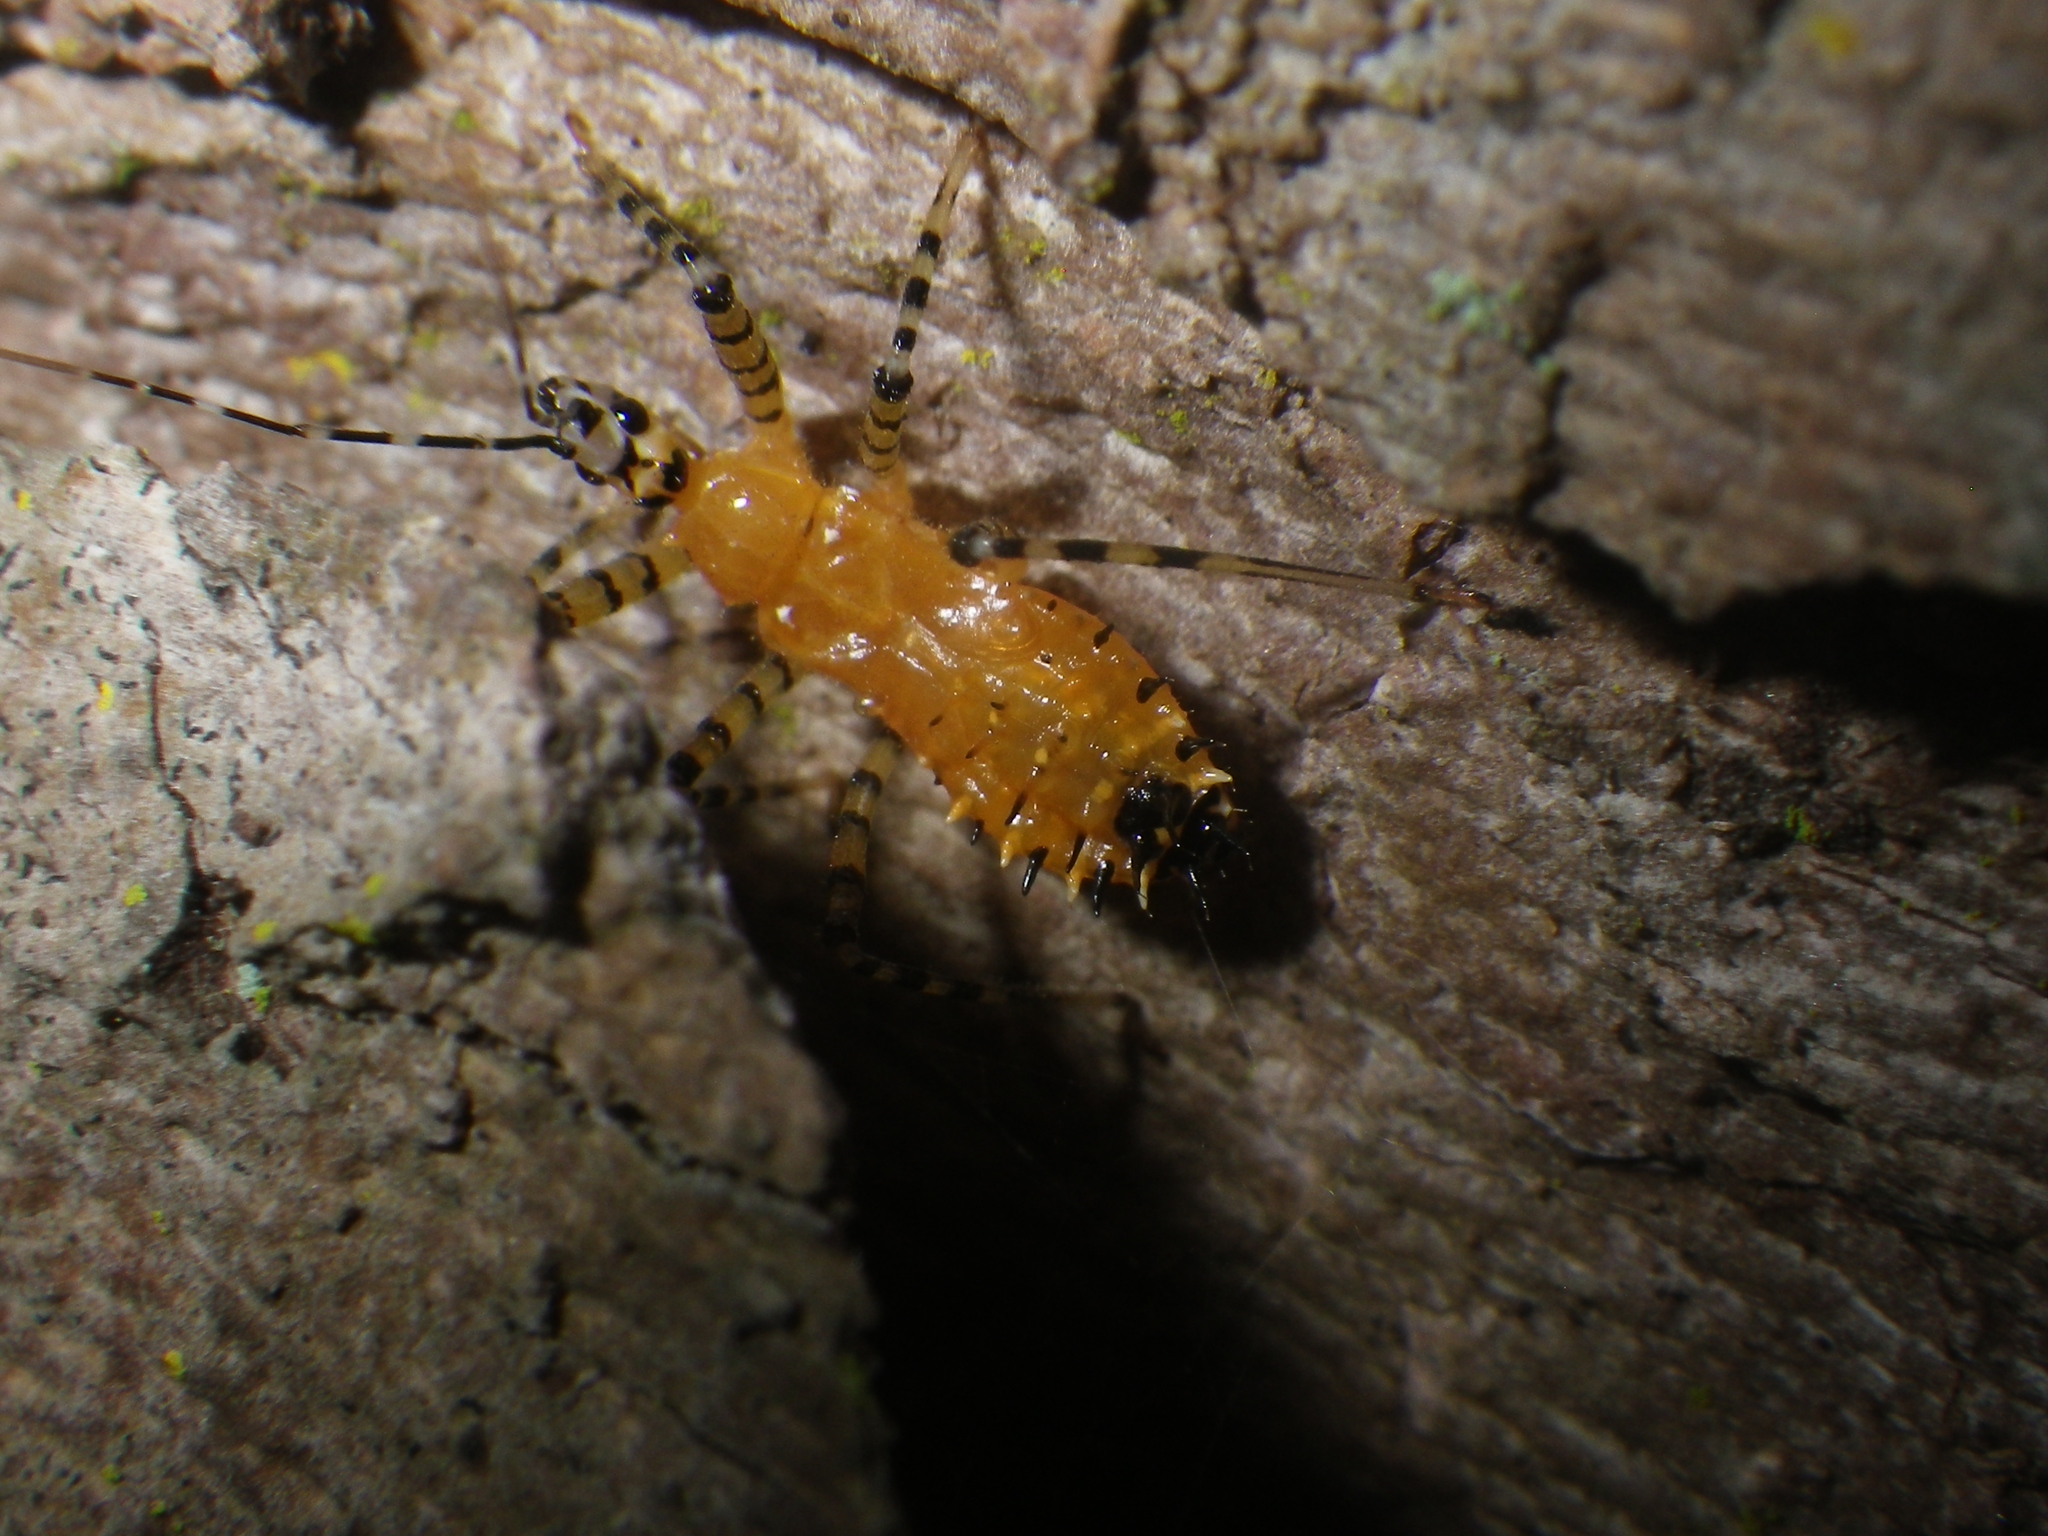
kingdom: Animalia
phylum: Arthropoda
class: Insecta
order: Hemiptera
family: Reduviidae
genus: Pselliopus
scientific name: Pselliopus barberi
